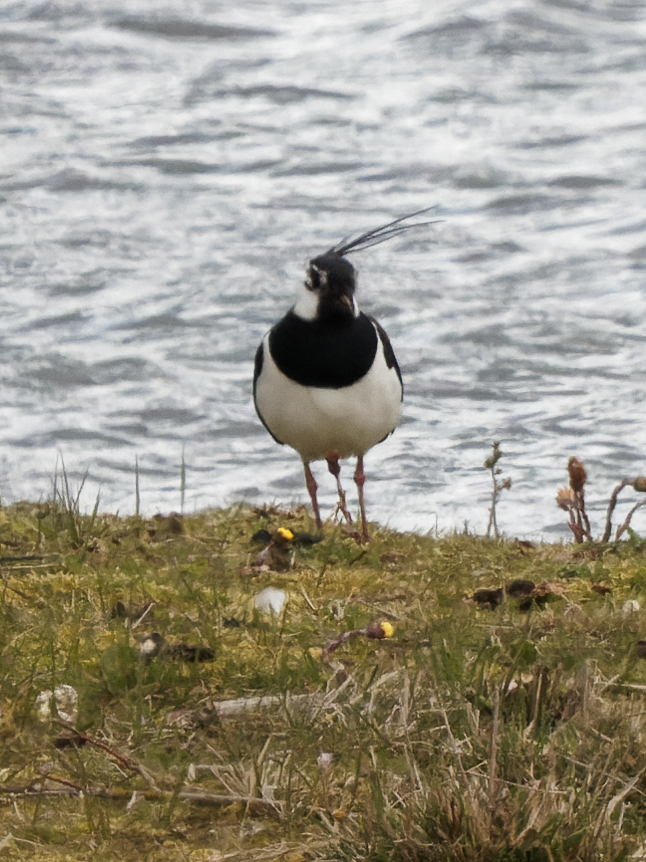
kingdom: Animalia
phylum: Chordata
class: Aves
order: Charadriiformes
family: Charadriidae
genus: Vanellus
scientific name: Vanellus vanellus
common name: Northern lapwing
